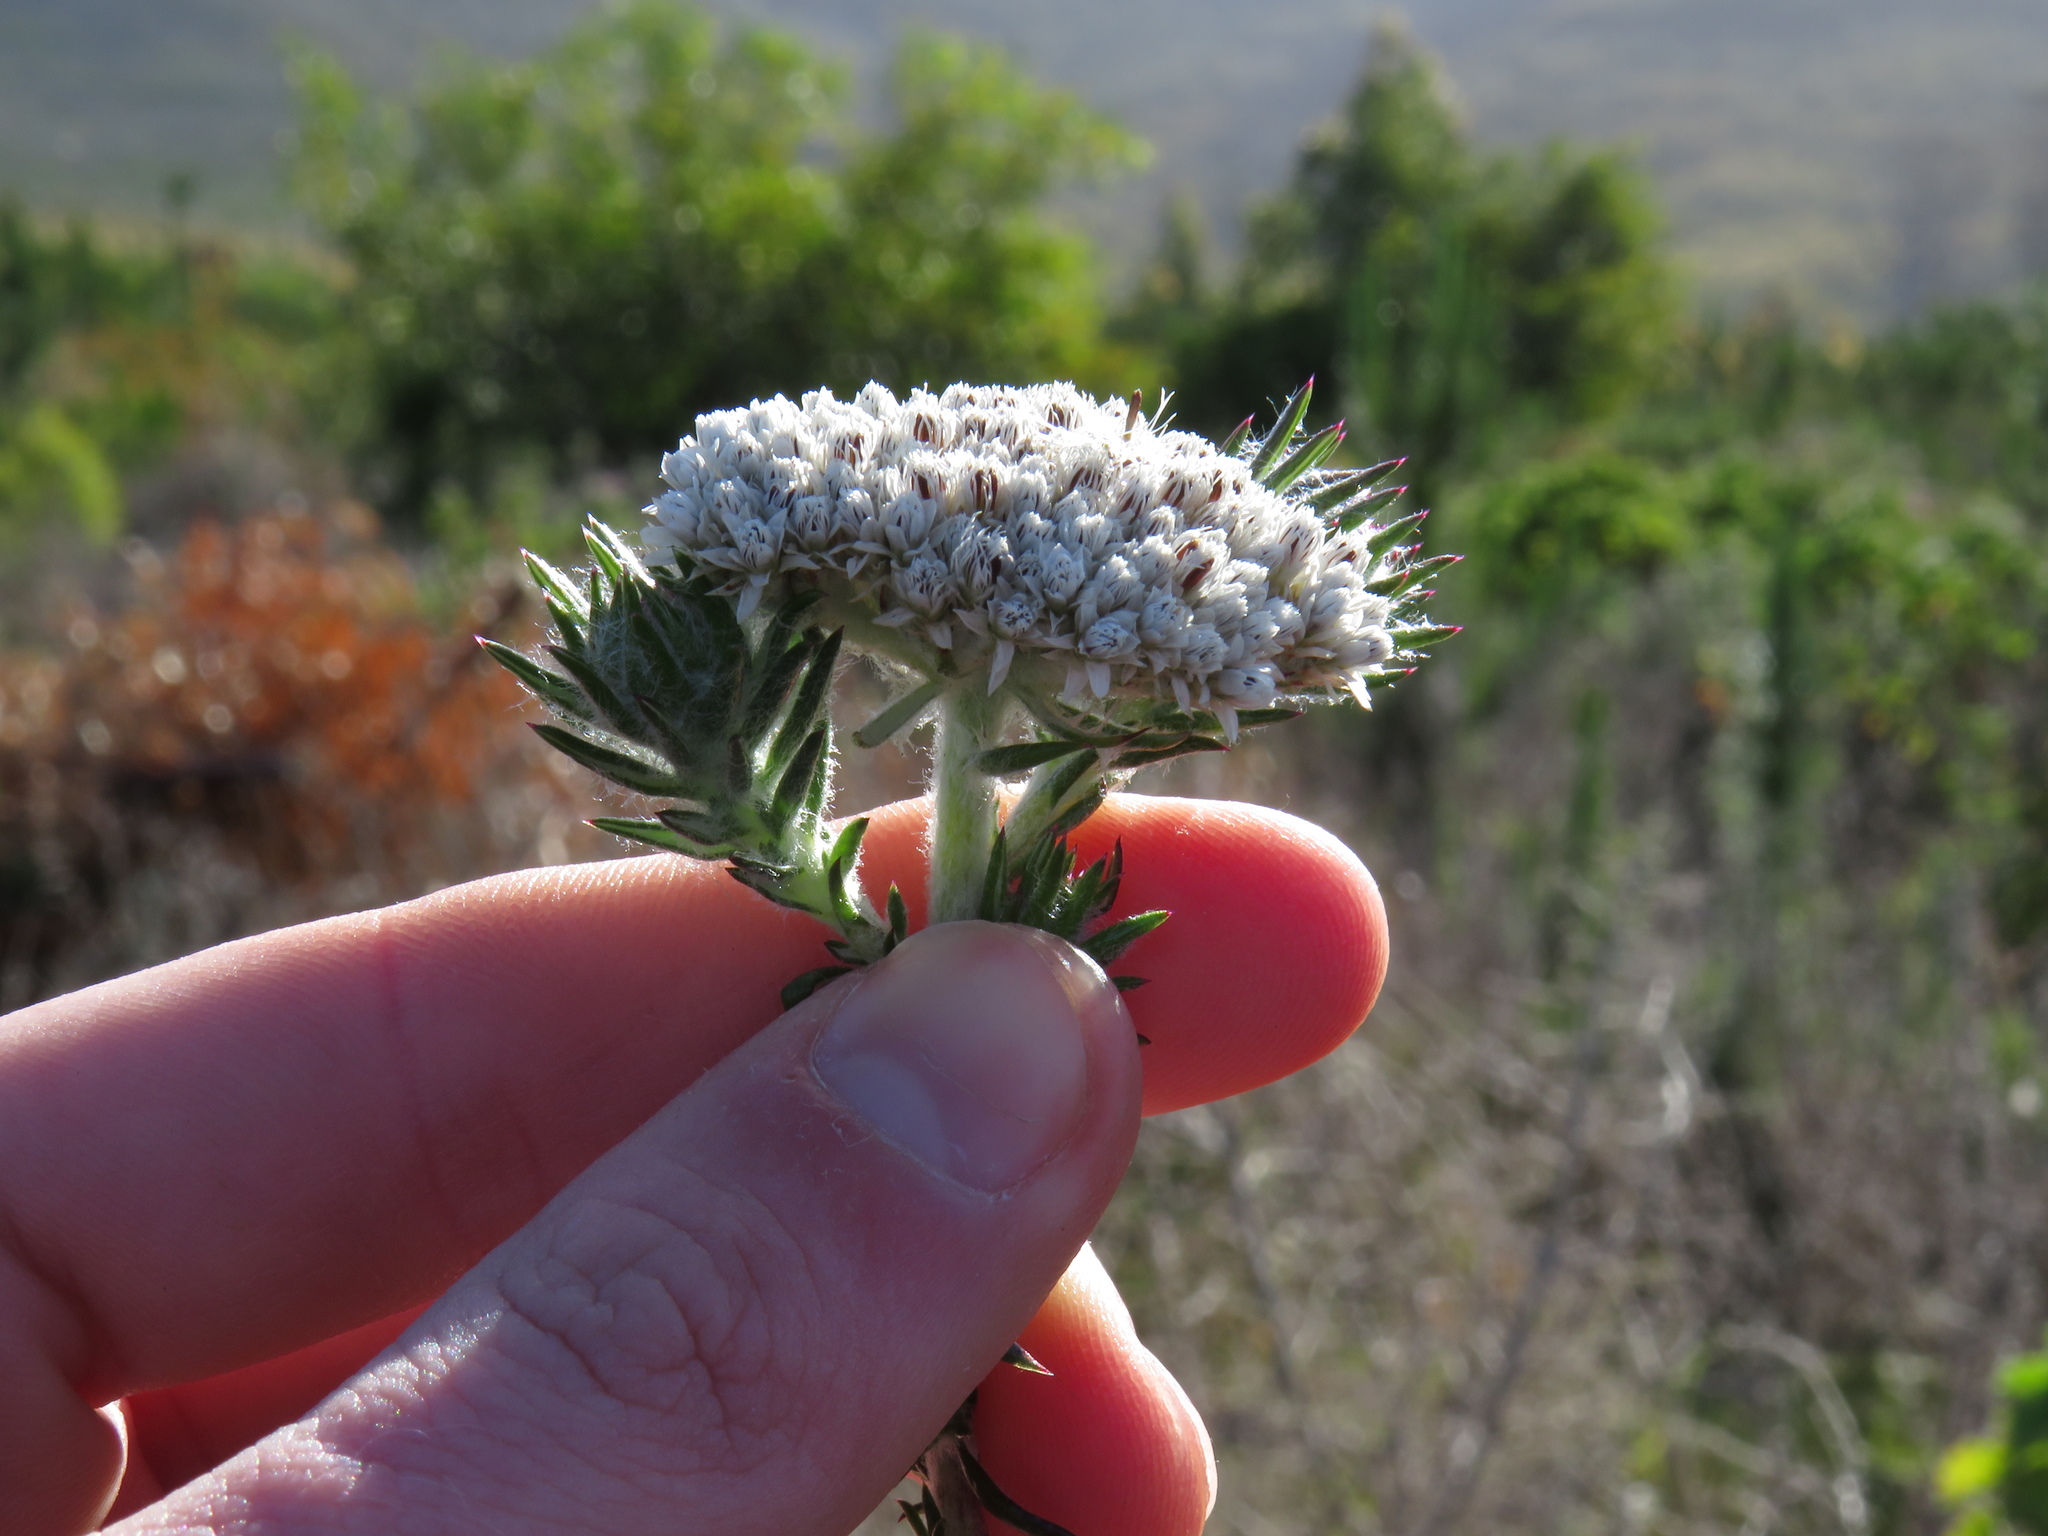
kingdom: Plantae
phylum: Tracheophyta
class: Magnoliopsida
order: Asterales
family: Asteraceae
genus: Metalasia
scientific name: Metalasia pulchella
